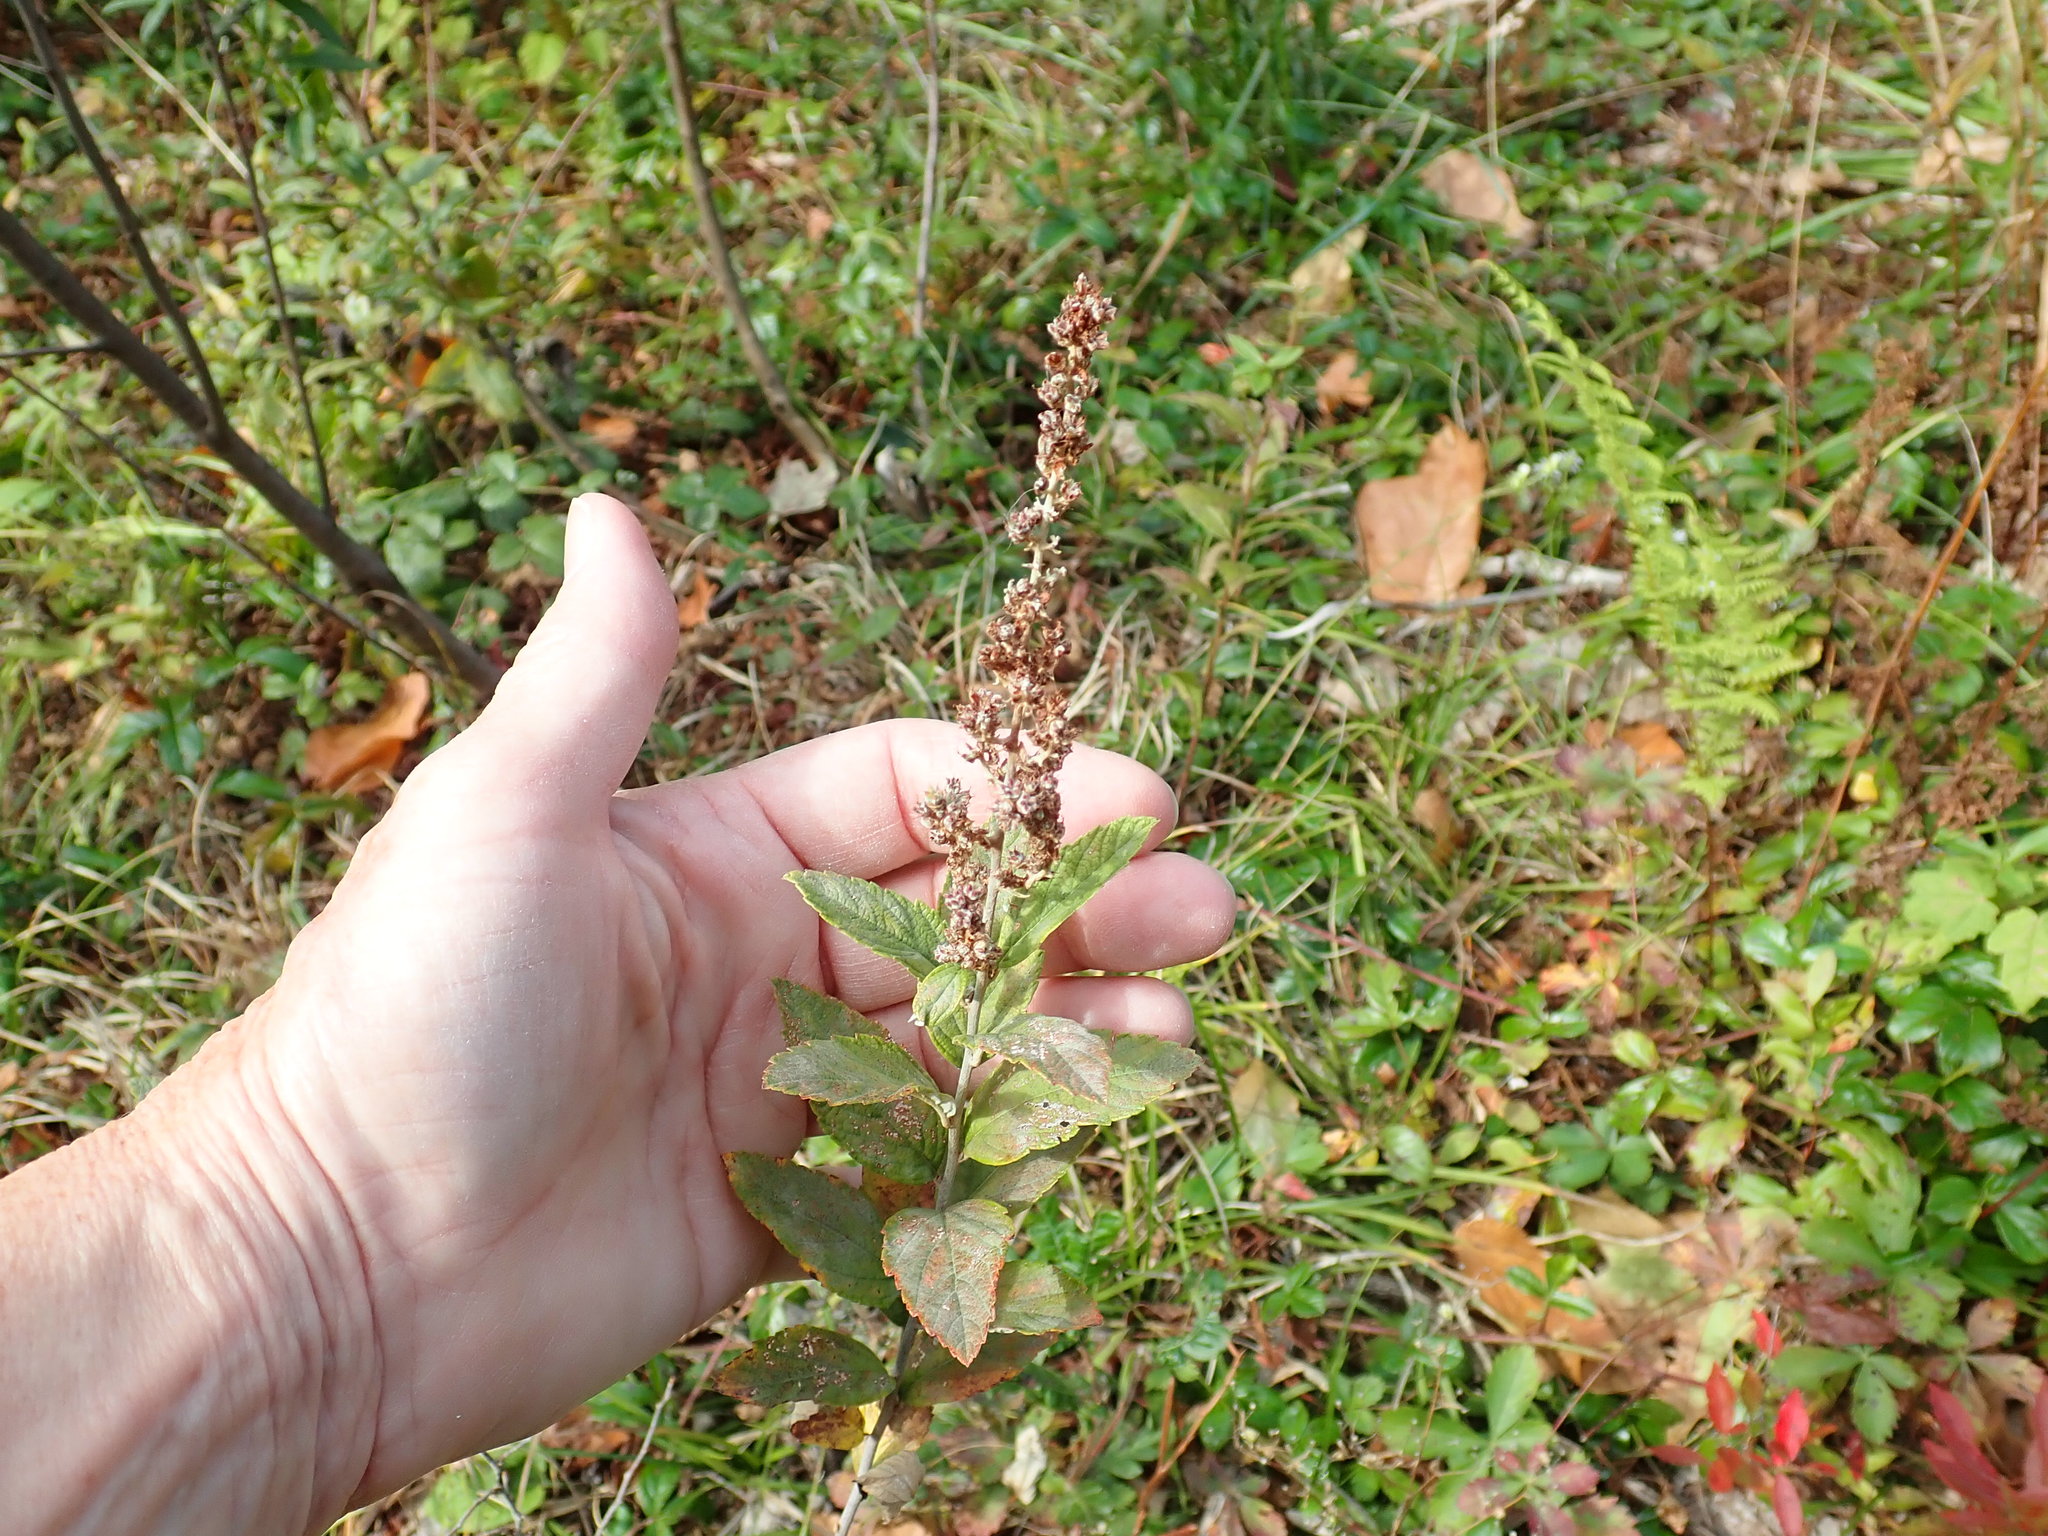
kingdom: Plantae
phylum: Tracheophyta
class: Magnoliopsida
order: Rosales
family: Rosaceae
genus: Spiraea
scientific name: Spiraea tomentosa
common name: Hardhack
